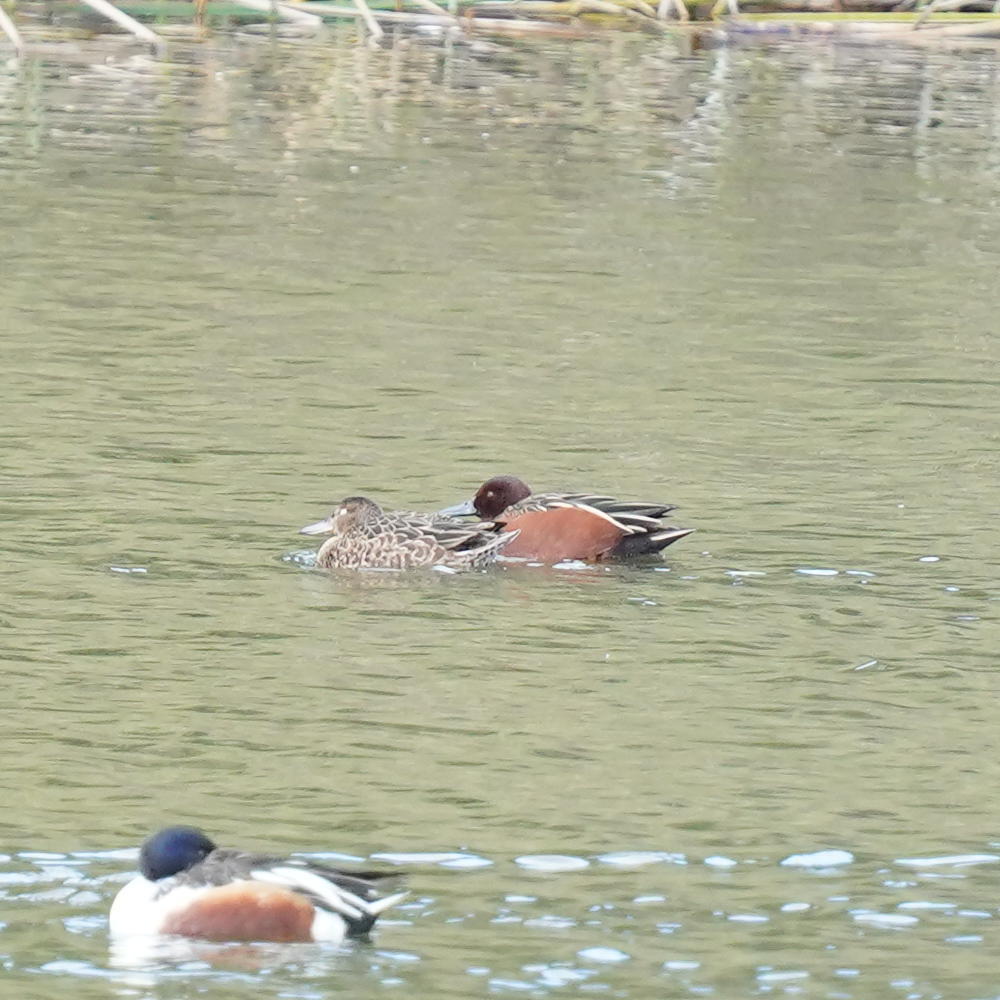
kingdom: Animalia
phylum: Chordata
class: Aves
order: Anseriformes
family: Anatidae
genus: Spatula
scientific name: Spatula cyanoptera
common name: Cinnamon teal
